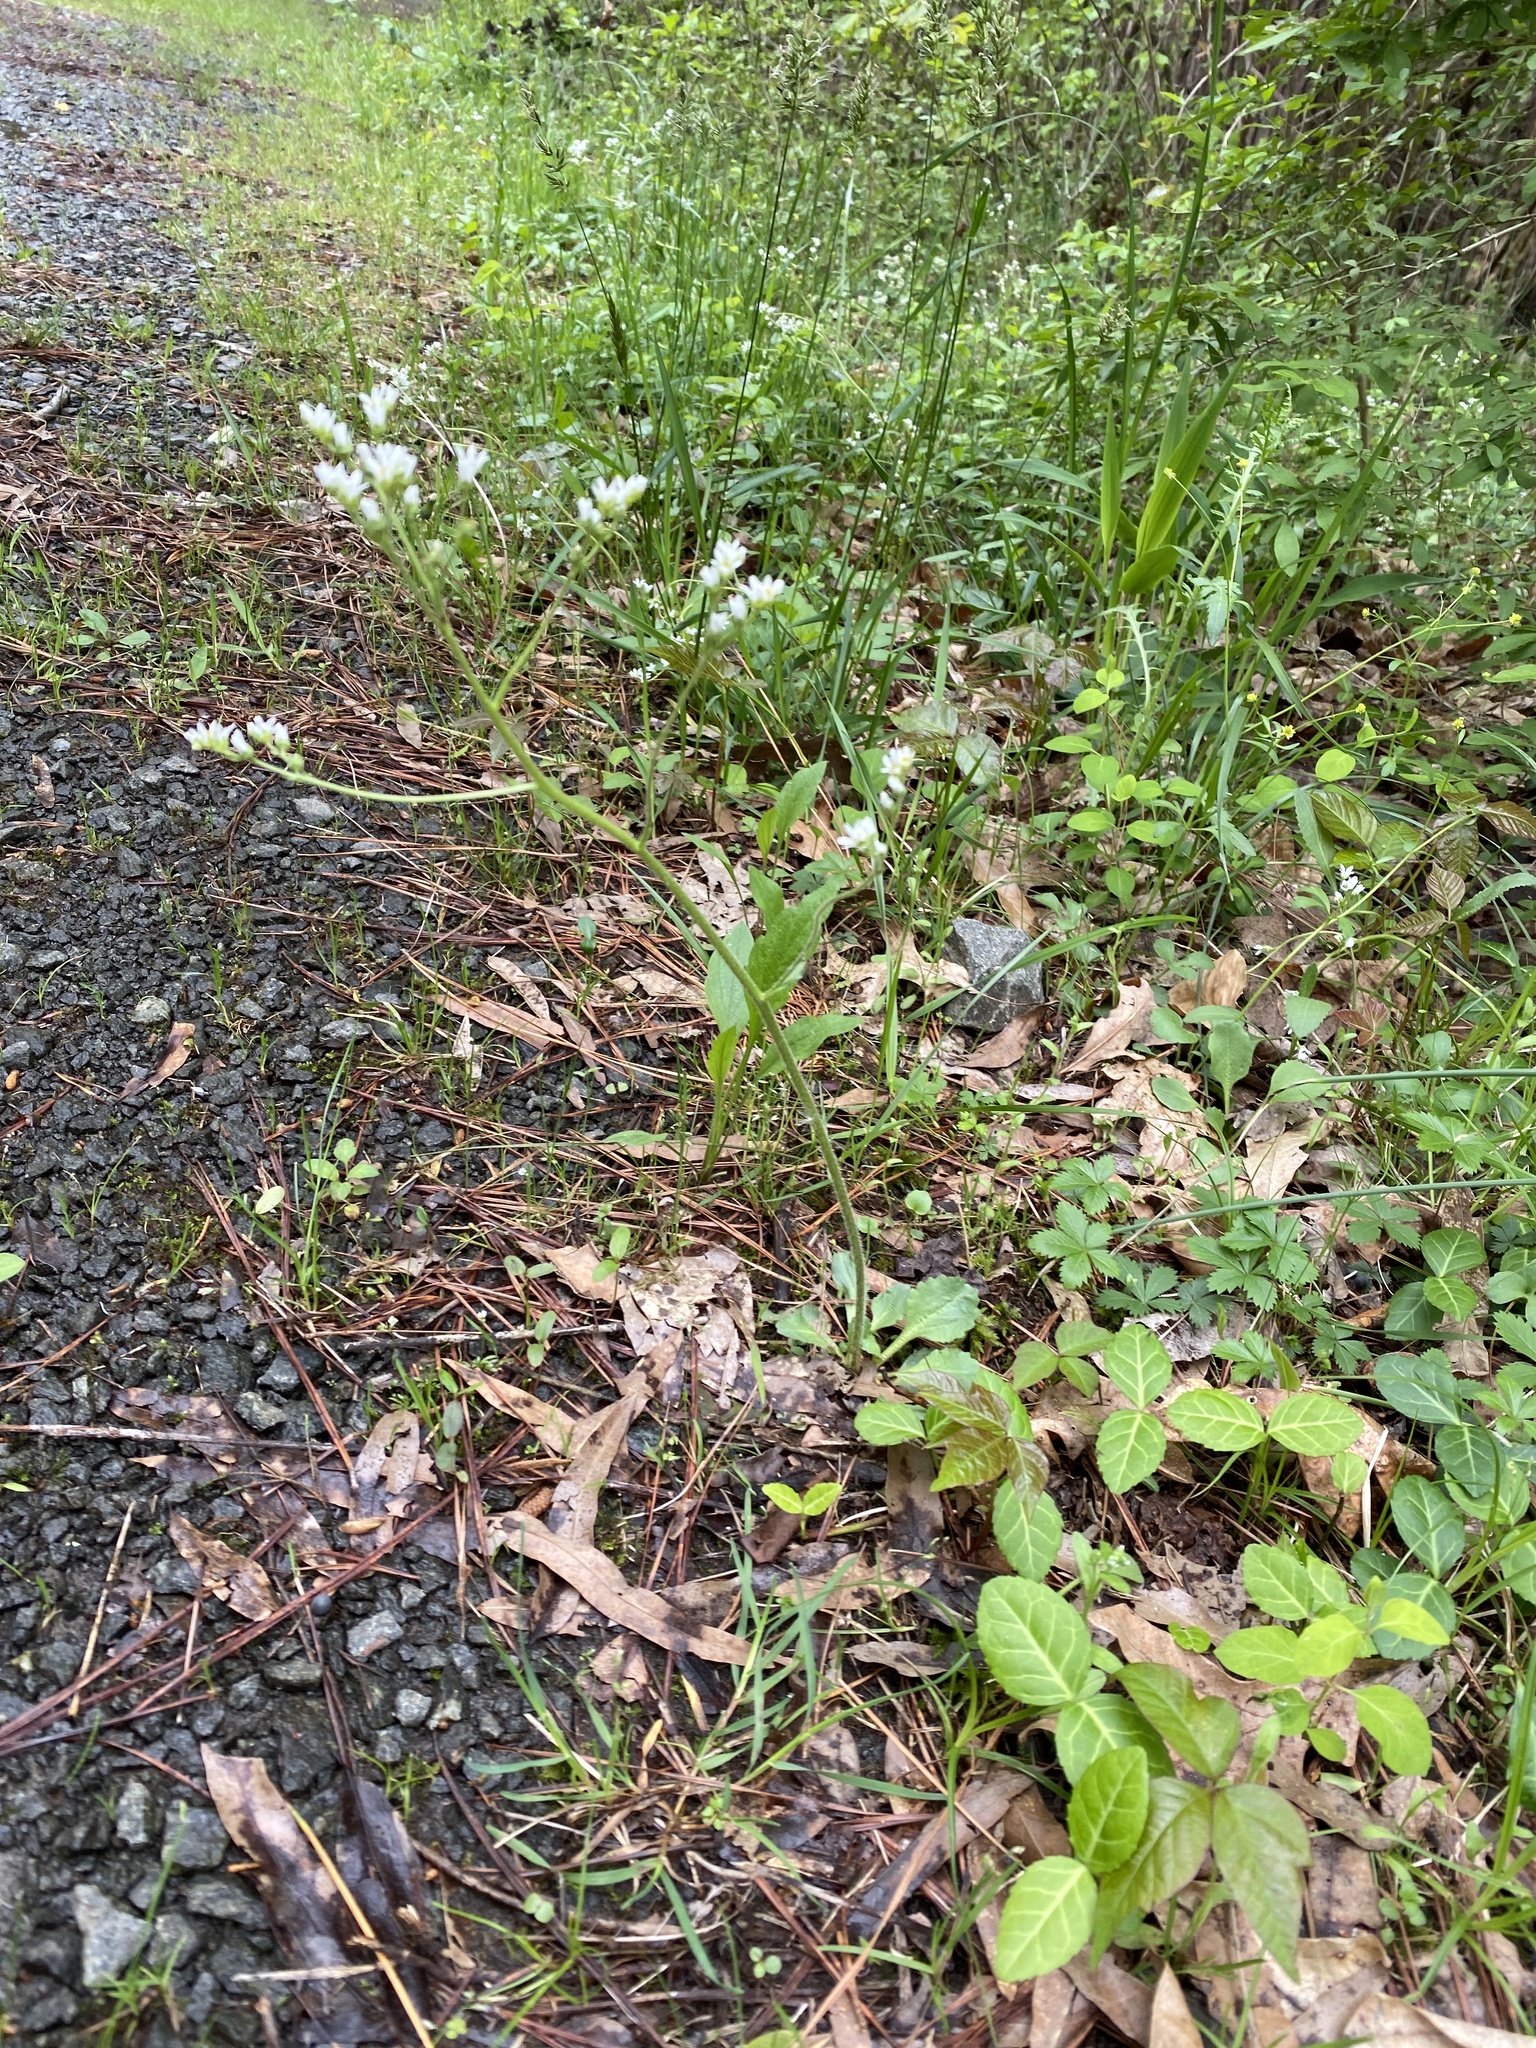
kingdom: Plantae
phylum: Tracheophyta
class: Magnoliopsida
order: Saxifragales
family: Saxifragaceae
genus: Micranthes
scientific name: Micranthes virginiensis
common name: Early saxifrage
